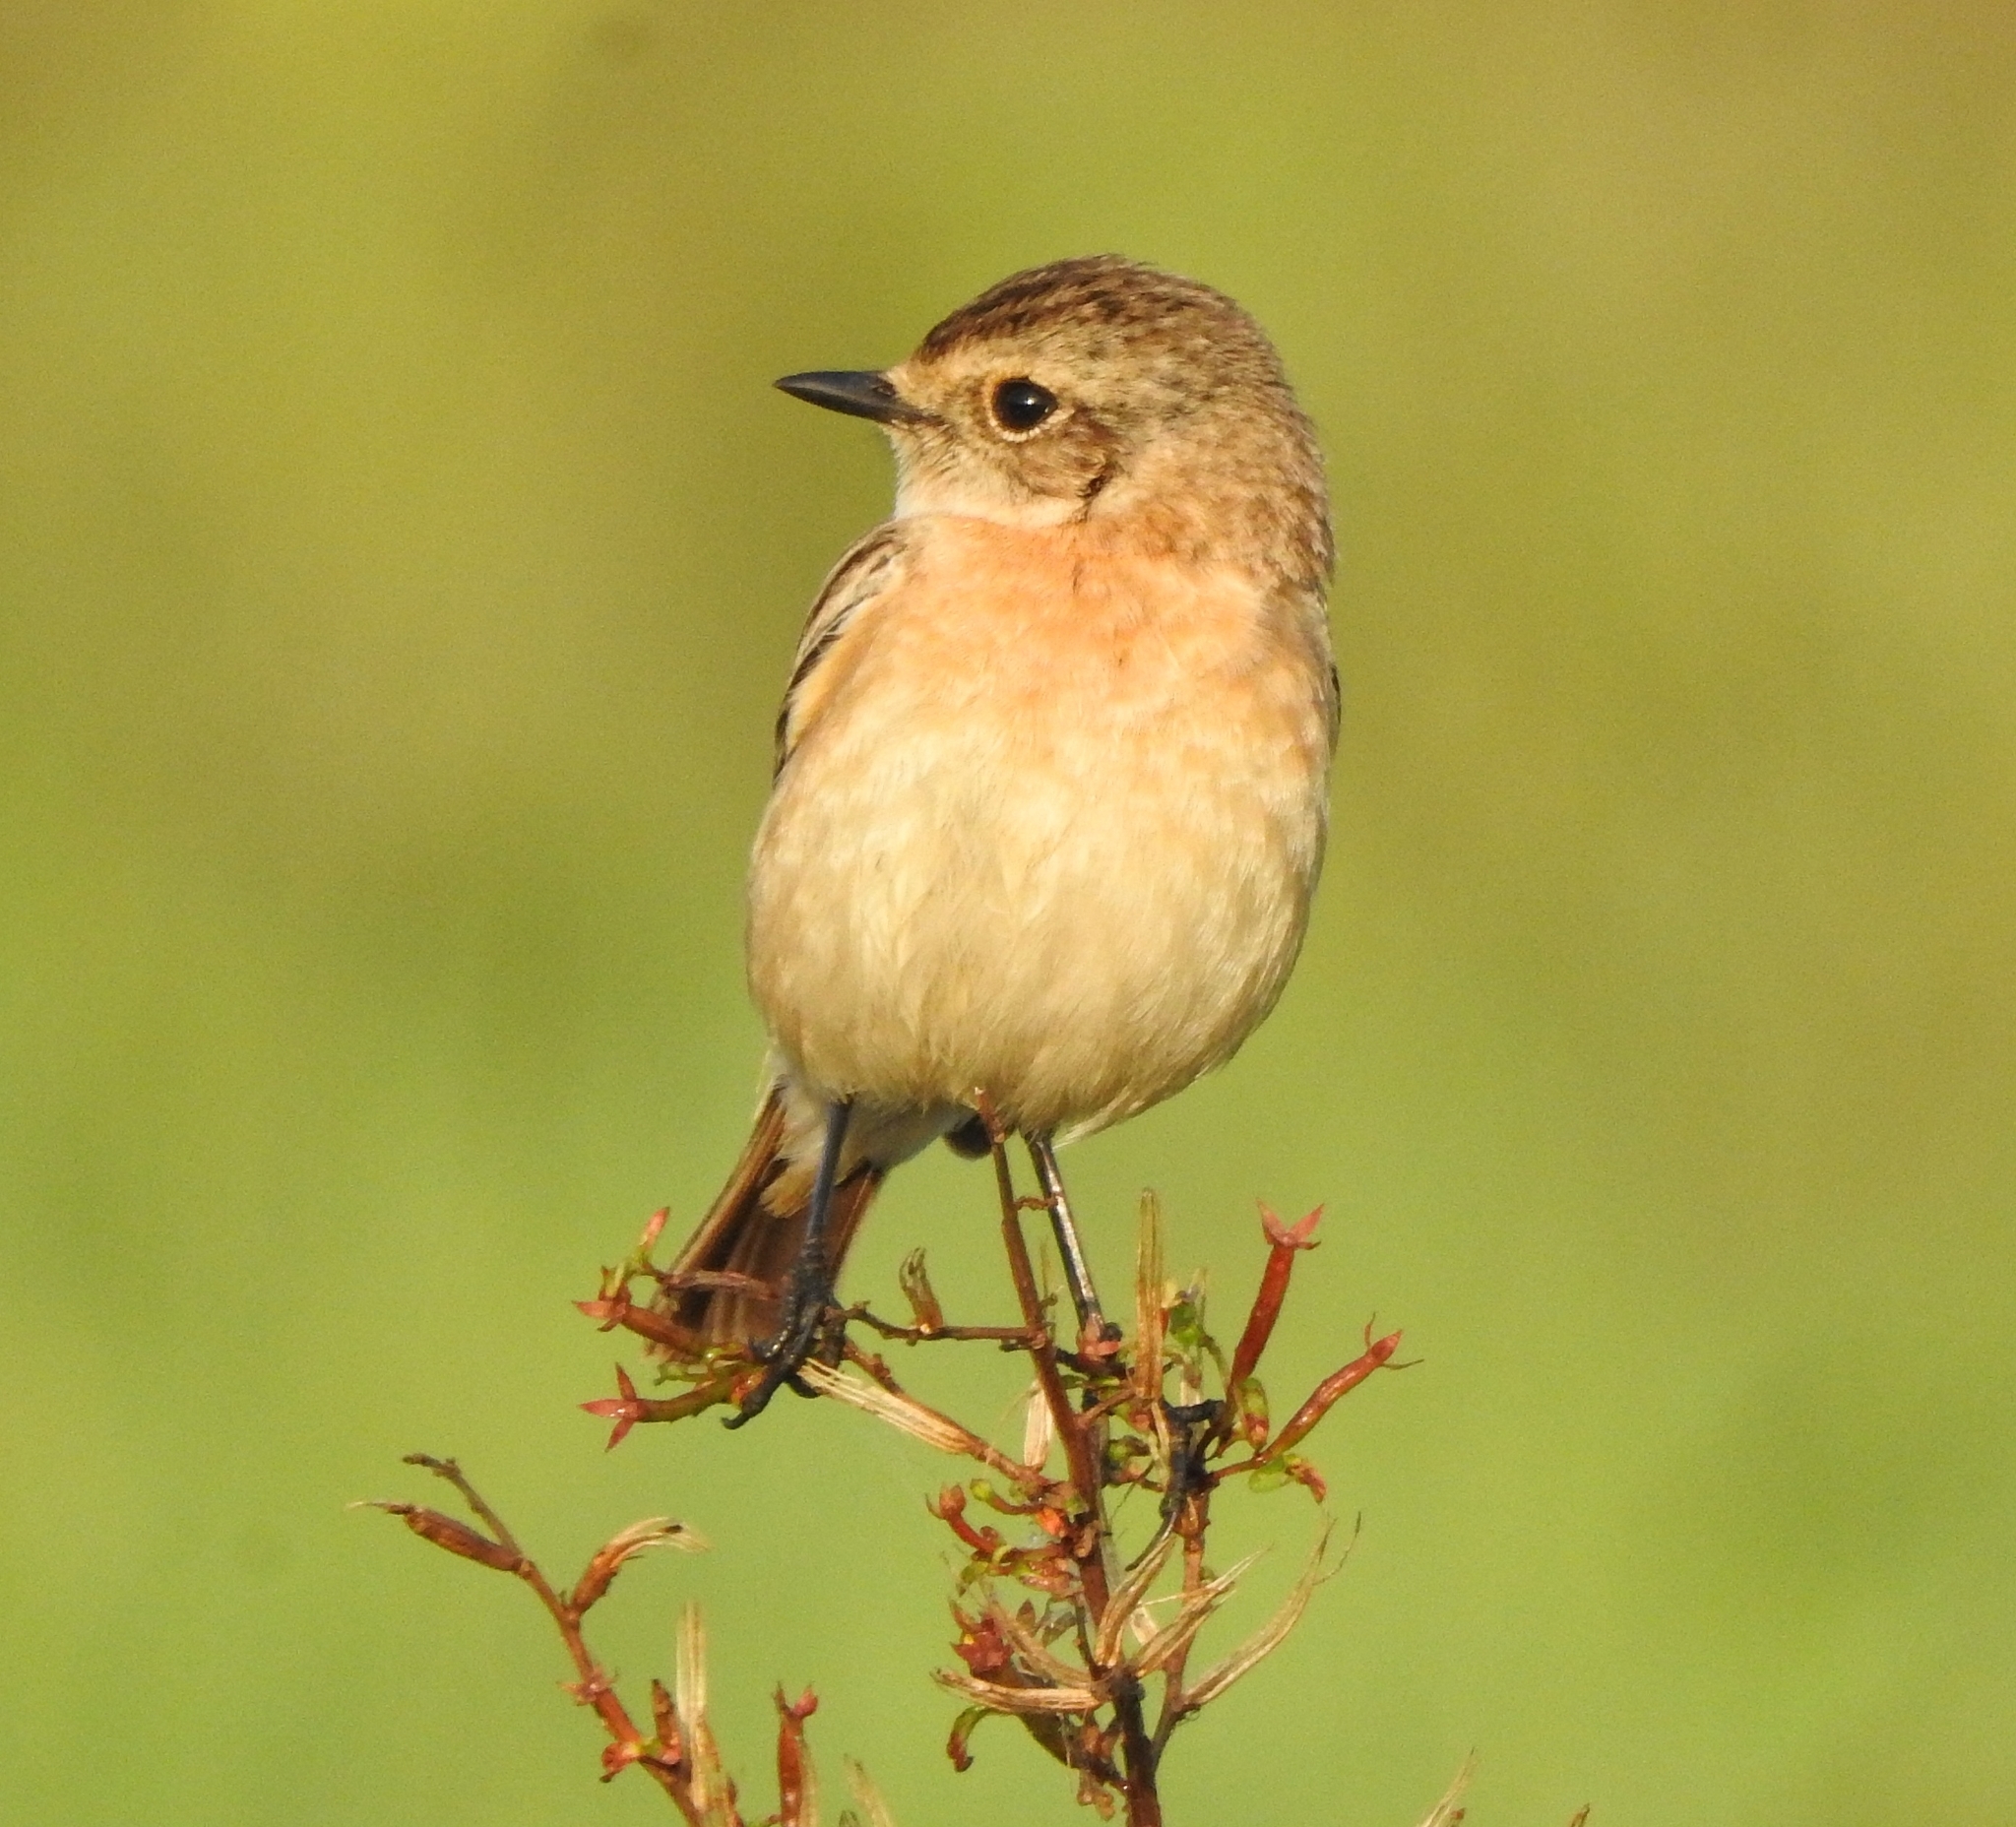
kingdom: Animalia
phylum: Chordata
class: Aves
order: Passeriformes
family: Muscicapidae
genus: Saxicola
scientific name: Saxicola maurus
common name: Siberian stonechat
